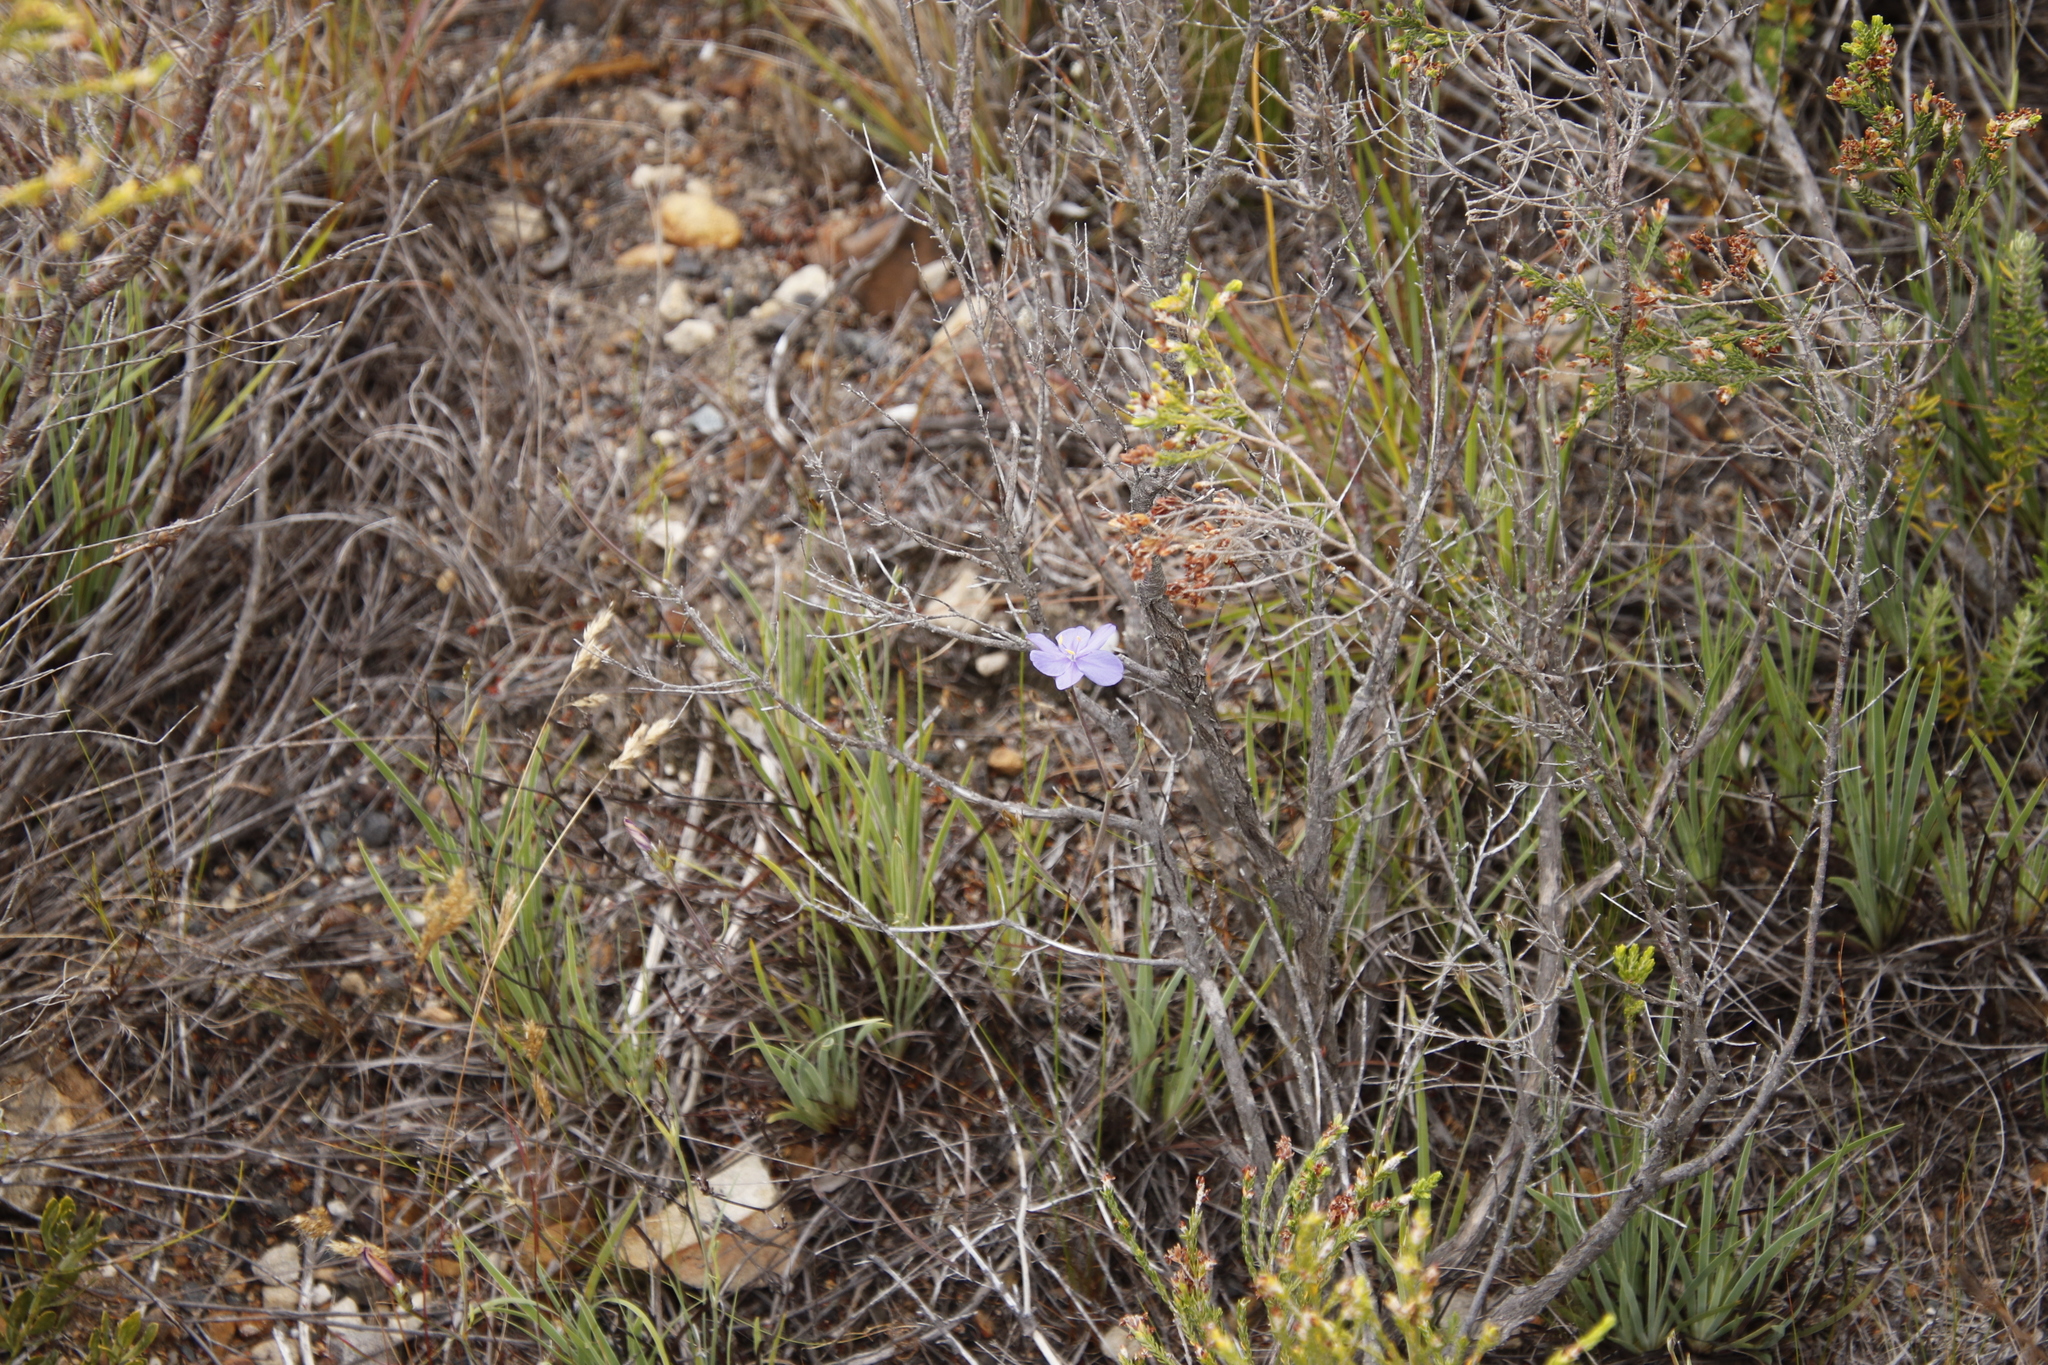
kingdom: Plantae
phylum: Tracheophyta
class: Liliopsida
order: Asparagales
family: Iridaceae
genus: Aristea
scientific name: Aristea dichotoma
